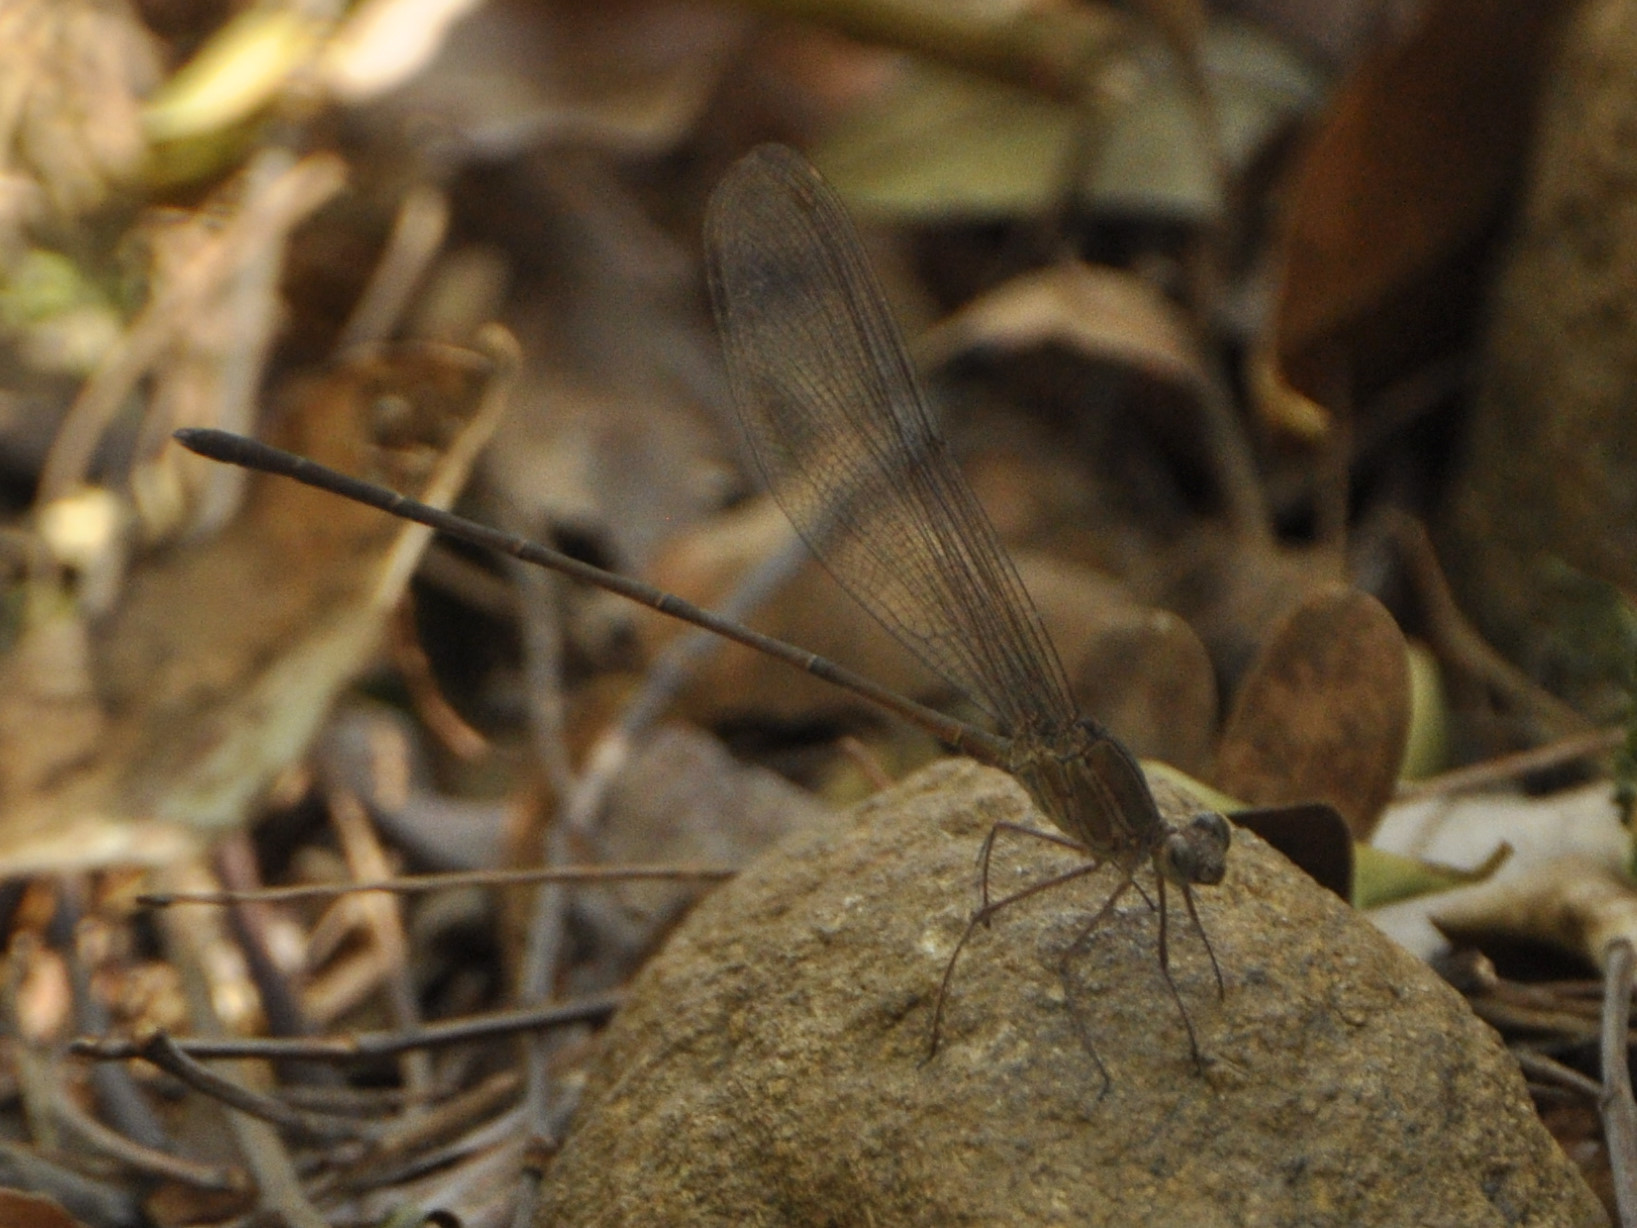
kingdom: Animalia
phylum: Arthropoda
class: Insecta
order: Odonata
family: Calopterygidae
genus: Phaon
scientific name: Phaon iridipennis
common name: Glistening demoiselle
